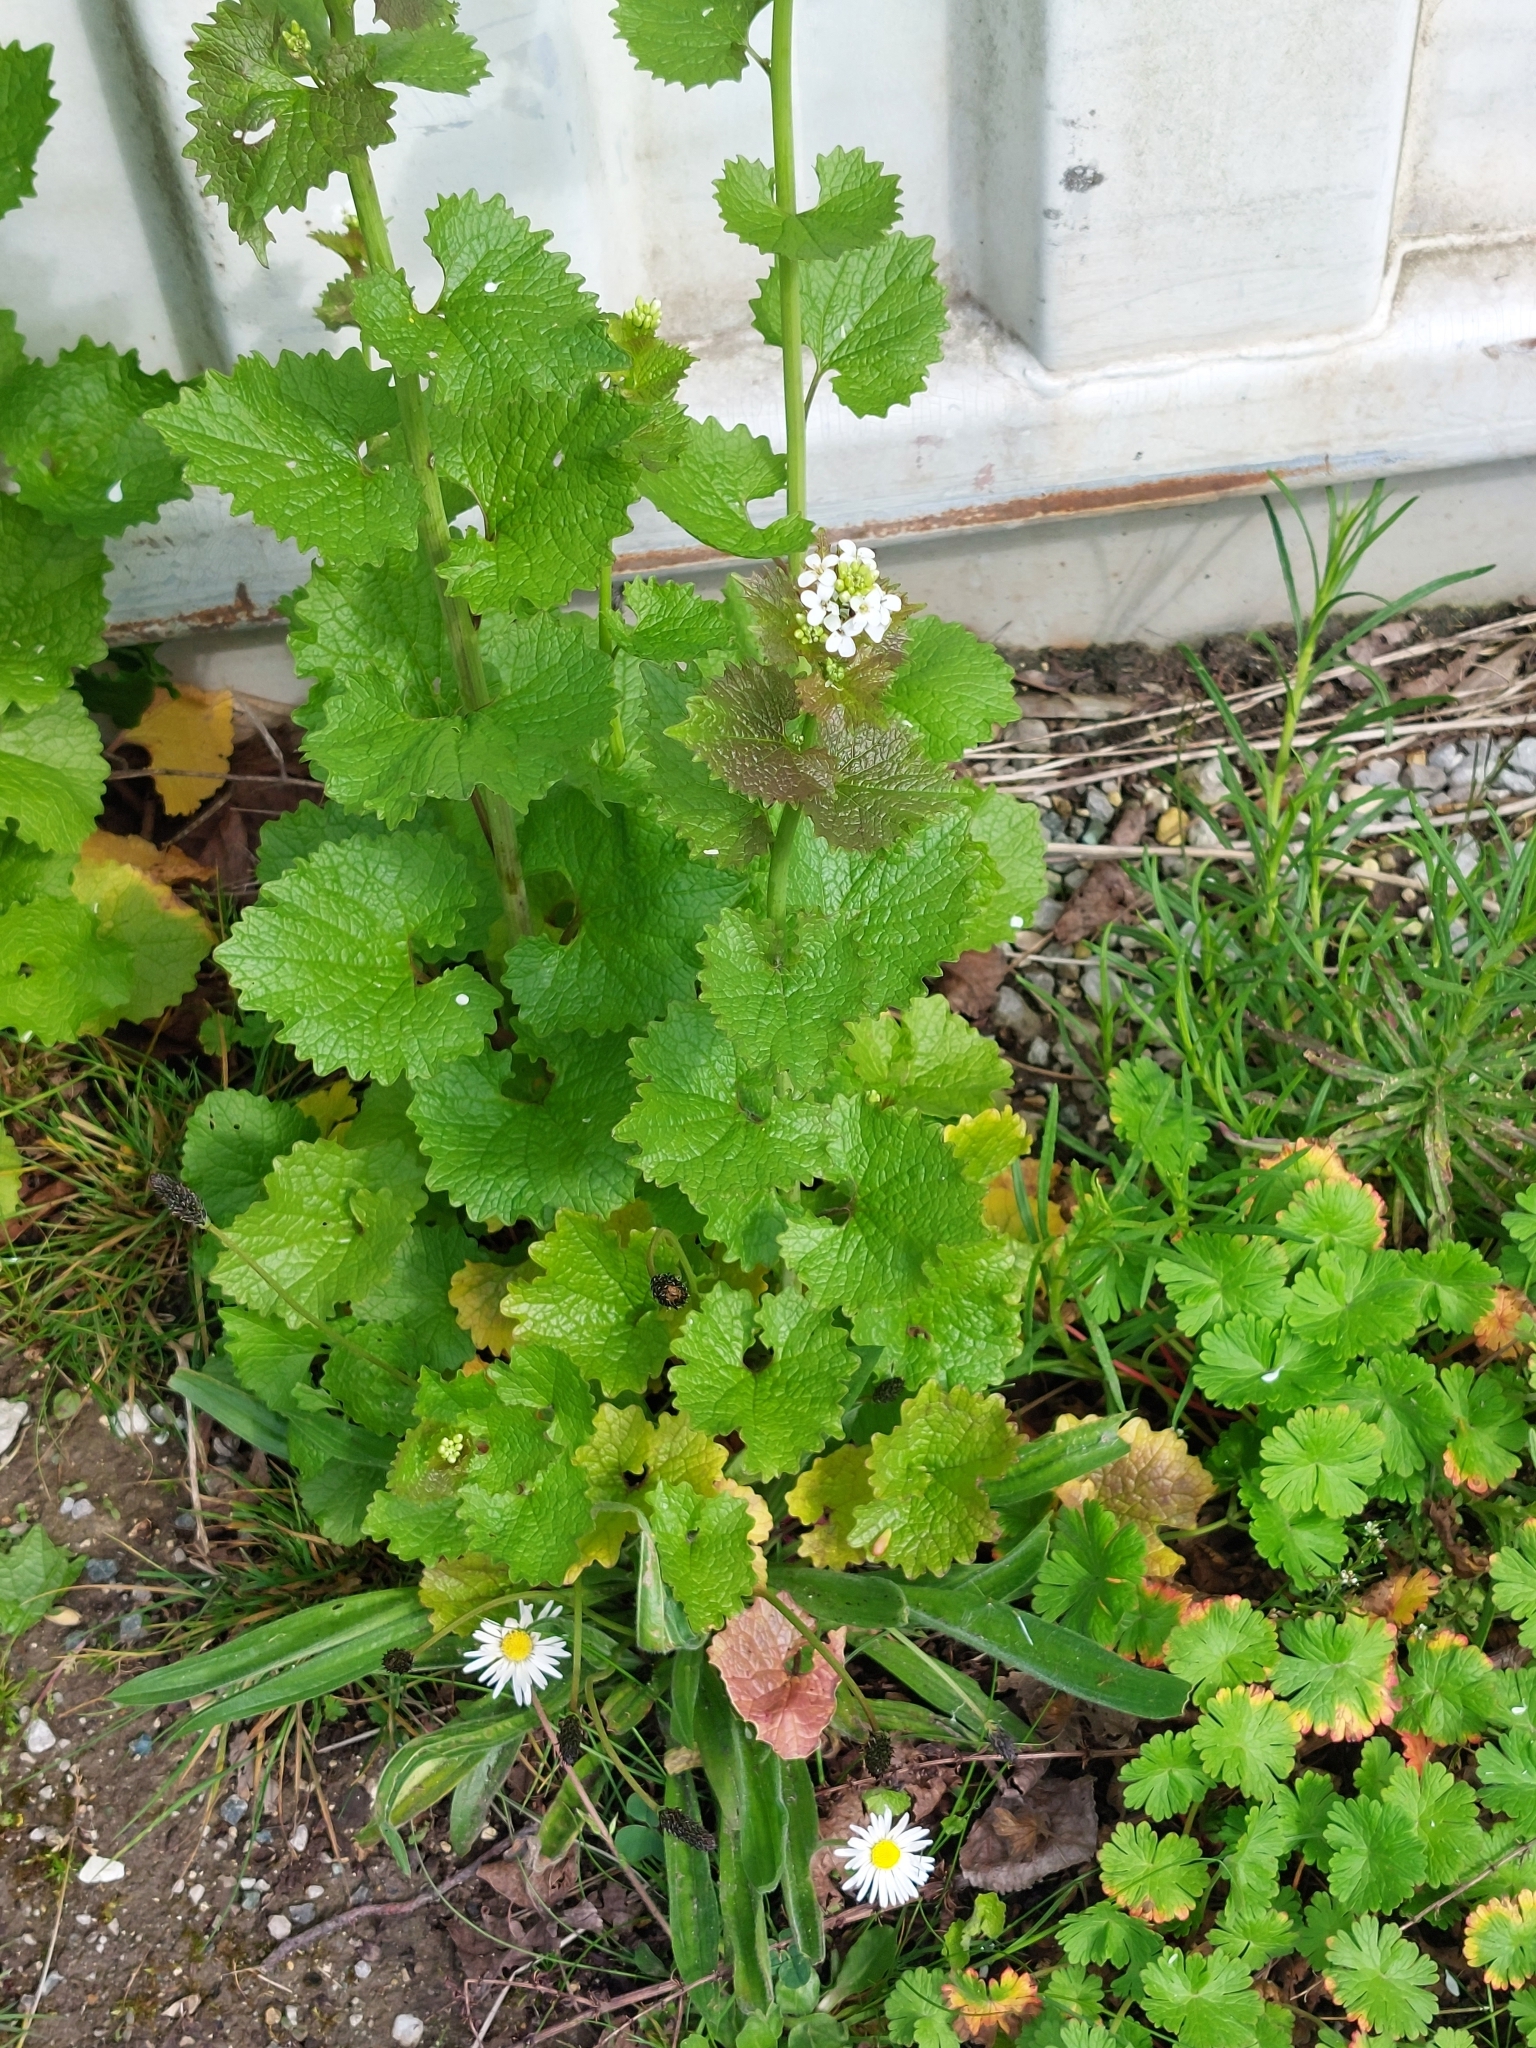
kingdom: Plantae
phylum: Tracheophyta
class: Magnoliopsida
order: Brassicales
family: Brassicaceae
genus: Alliaria
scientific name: Alliaria petiolata
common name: Garlic mustard
